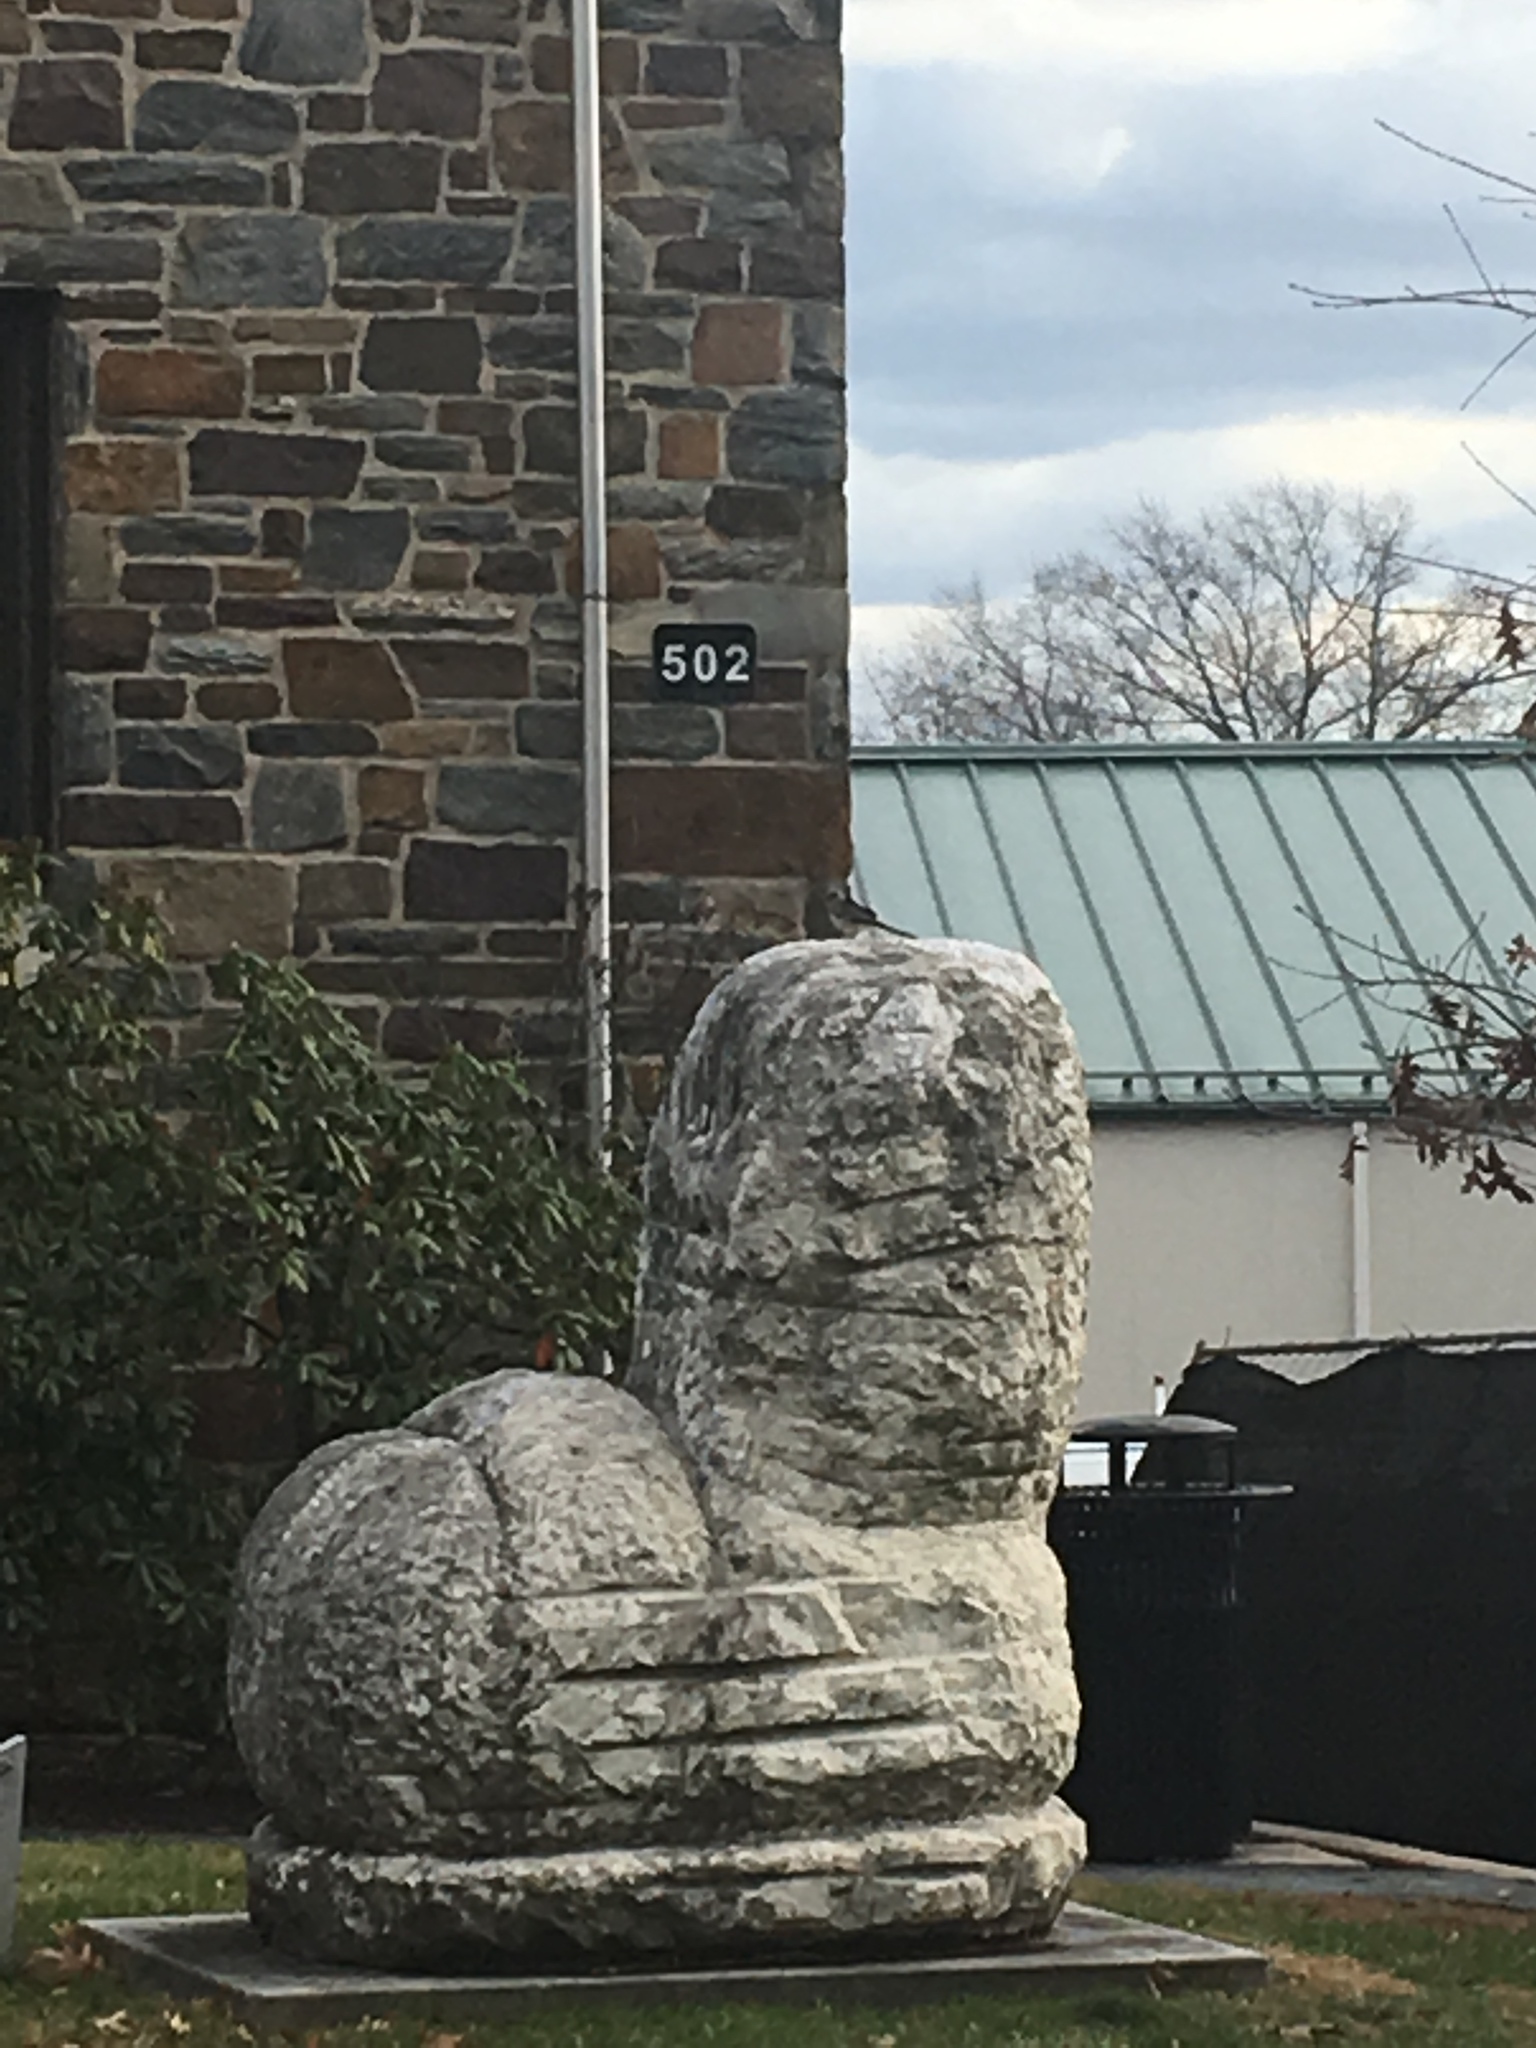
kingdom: Animalia
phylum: Chordata
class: Aves
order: Passeriformes
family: Paridae
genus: Baeolophus
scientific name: Baeolophus bicolor
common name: Tufted titmouse
